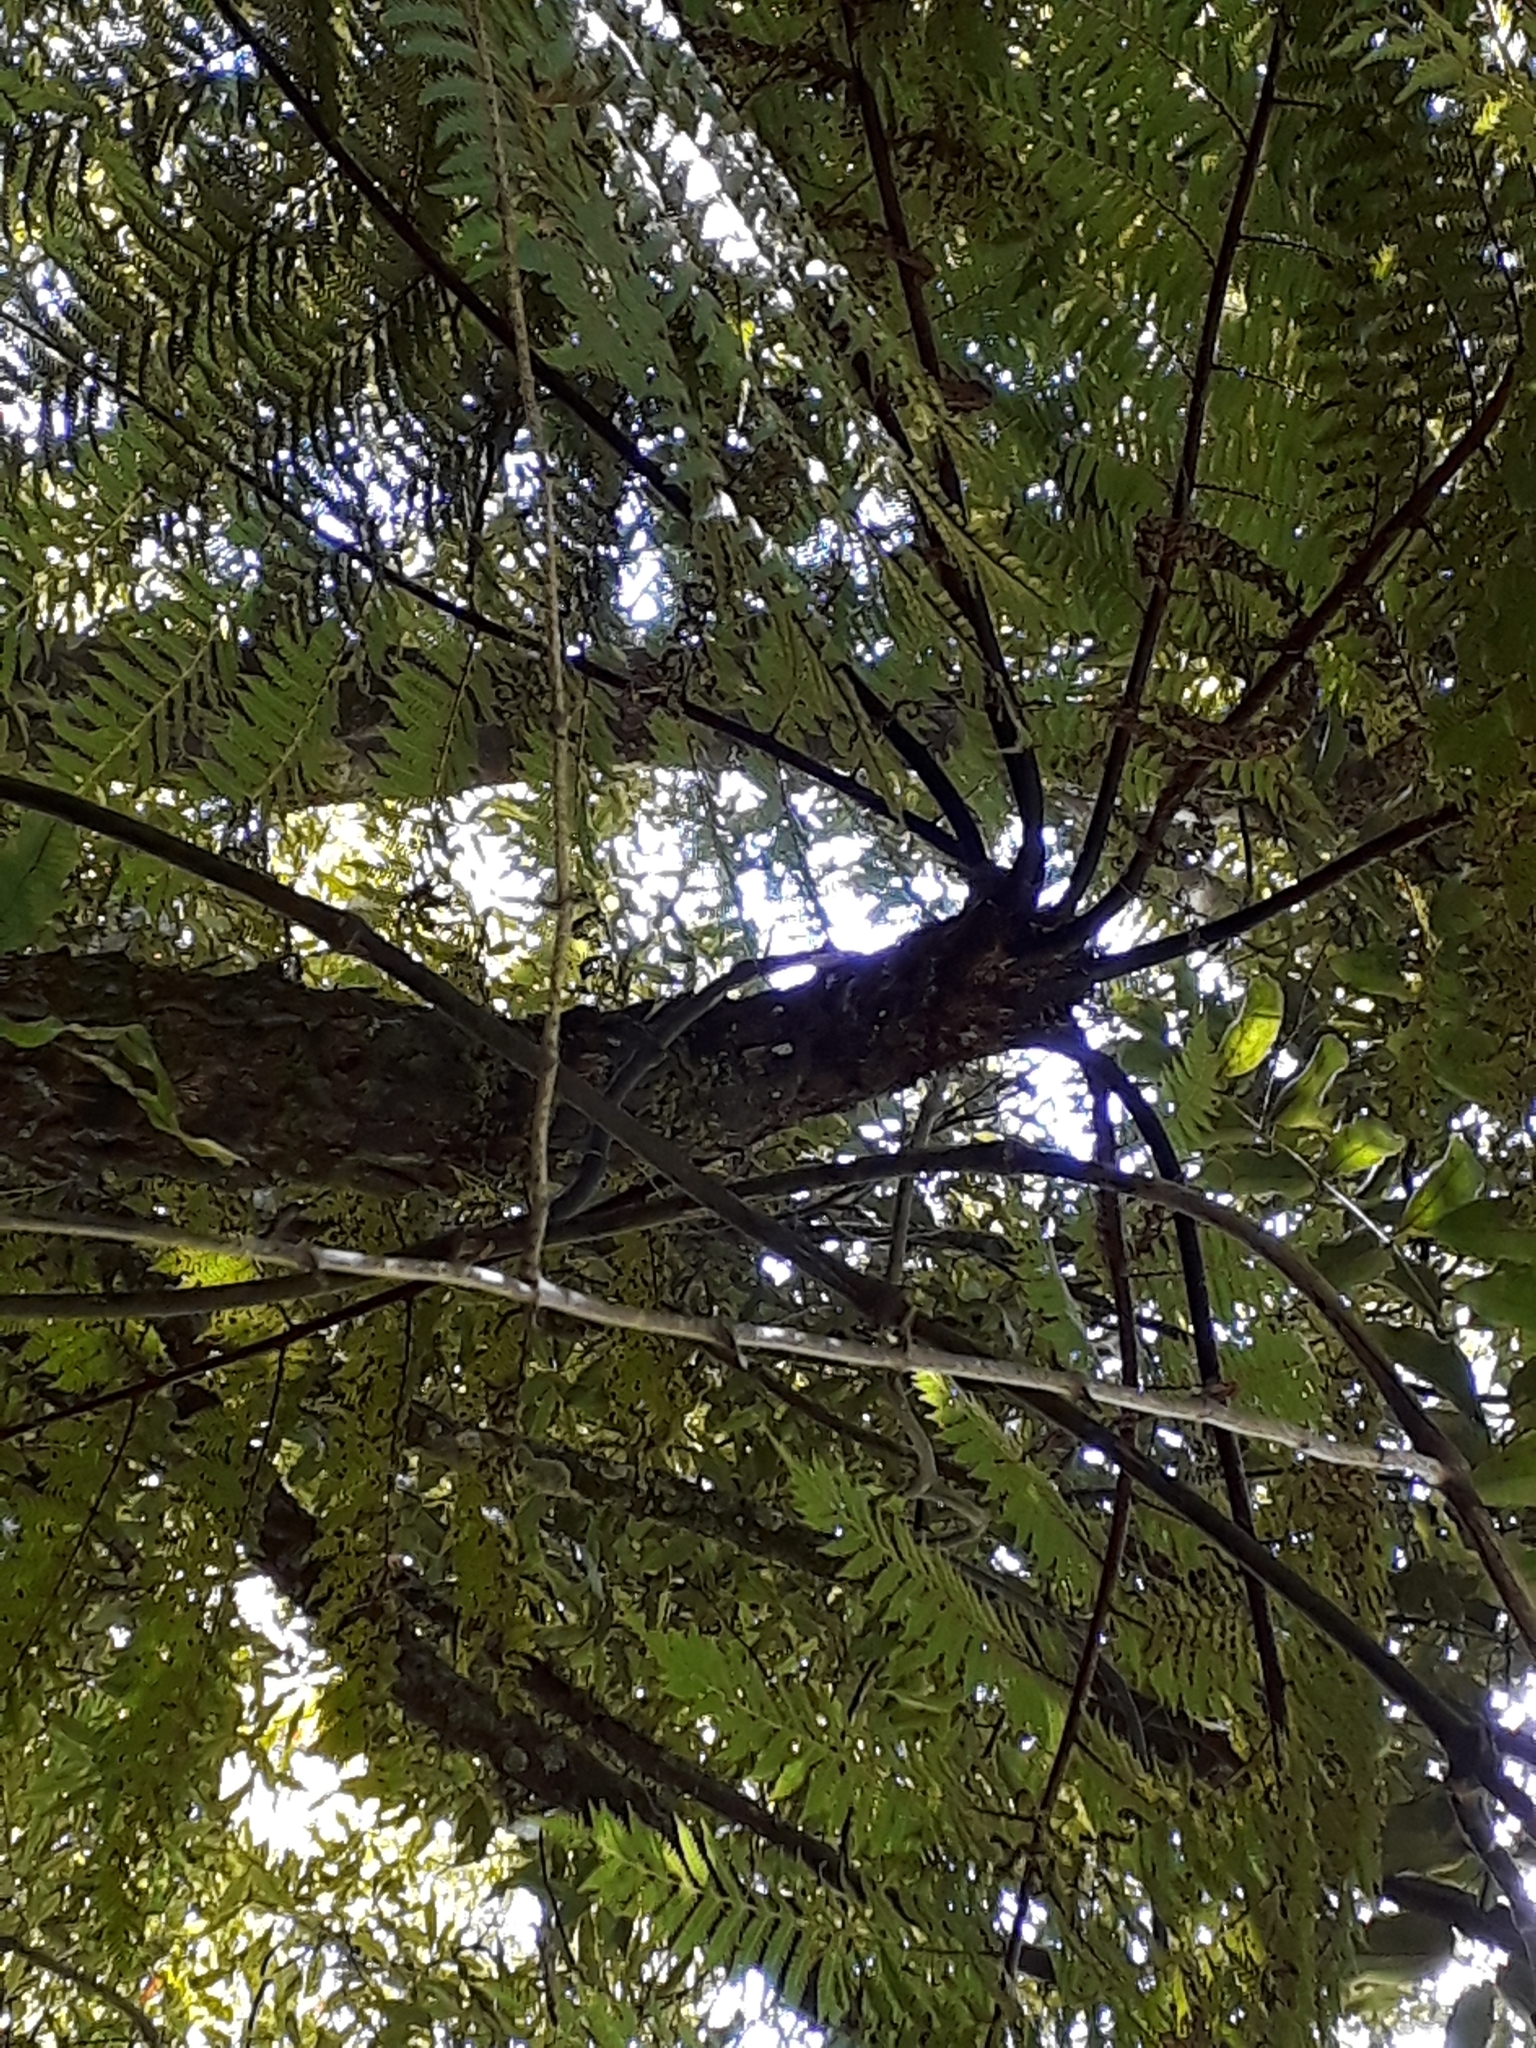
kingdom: Plantae
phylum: Tracheophyta
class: Polypodiopsida
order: Cyatheales
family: Cyatheaceae
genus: Cyathea
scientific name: Cyathea cunninghamii
